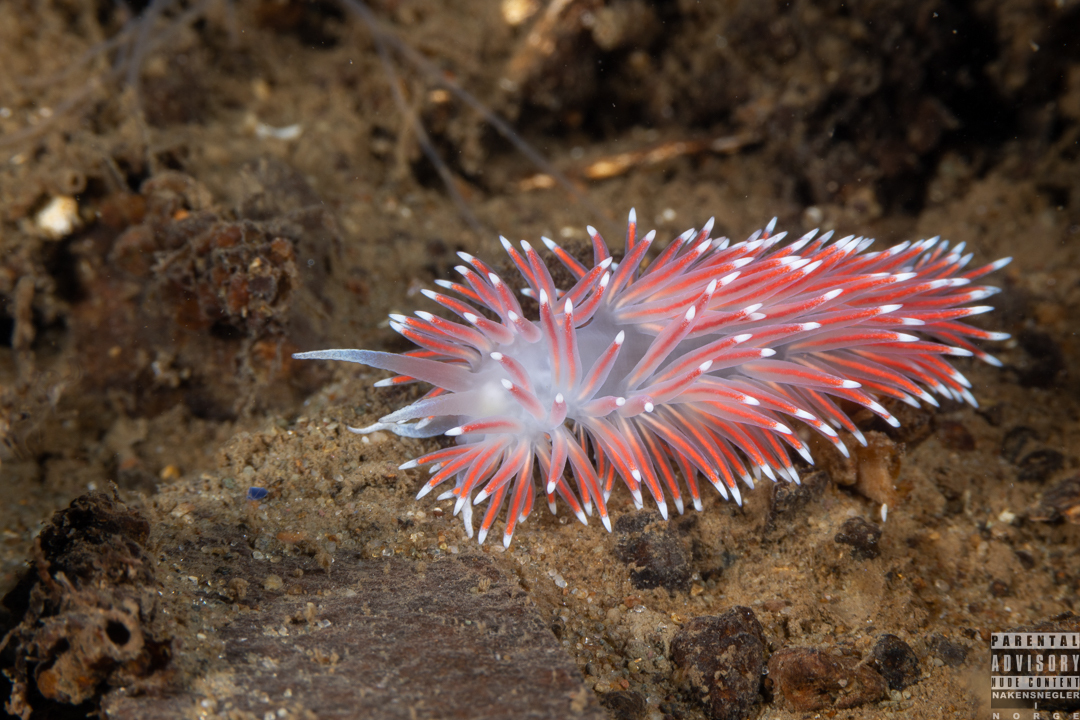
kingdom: Animalia
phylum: Mollusca
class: Gastropoda
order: Nudibranchia
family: Flabellinidae
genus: Carronella
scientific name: Carronella pellucida
